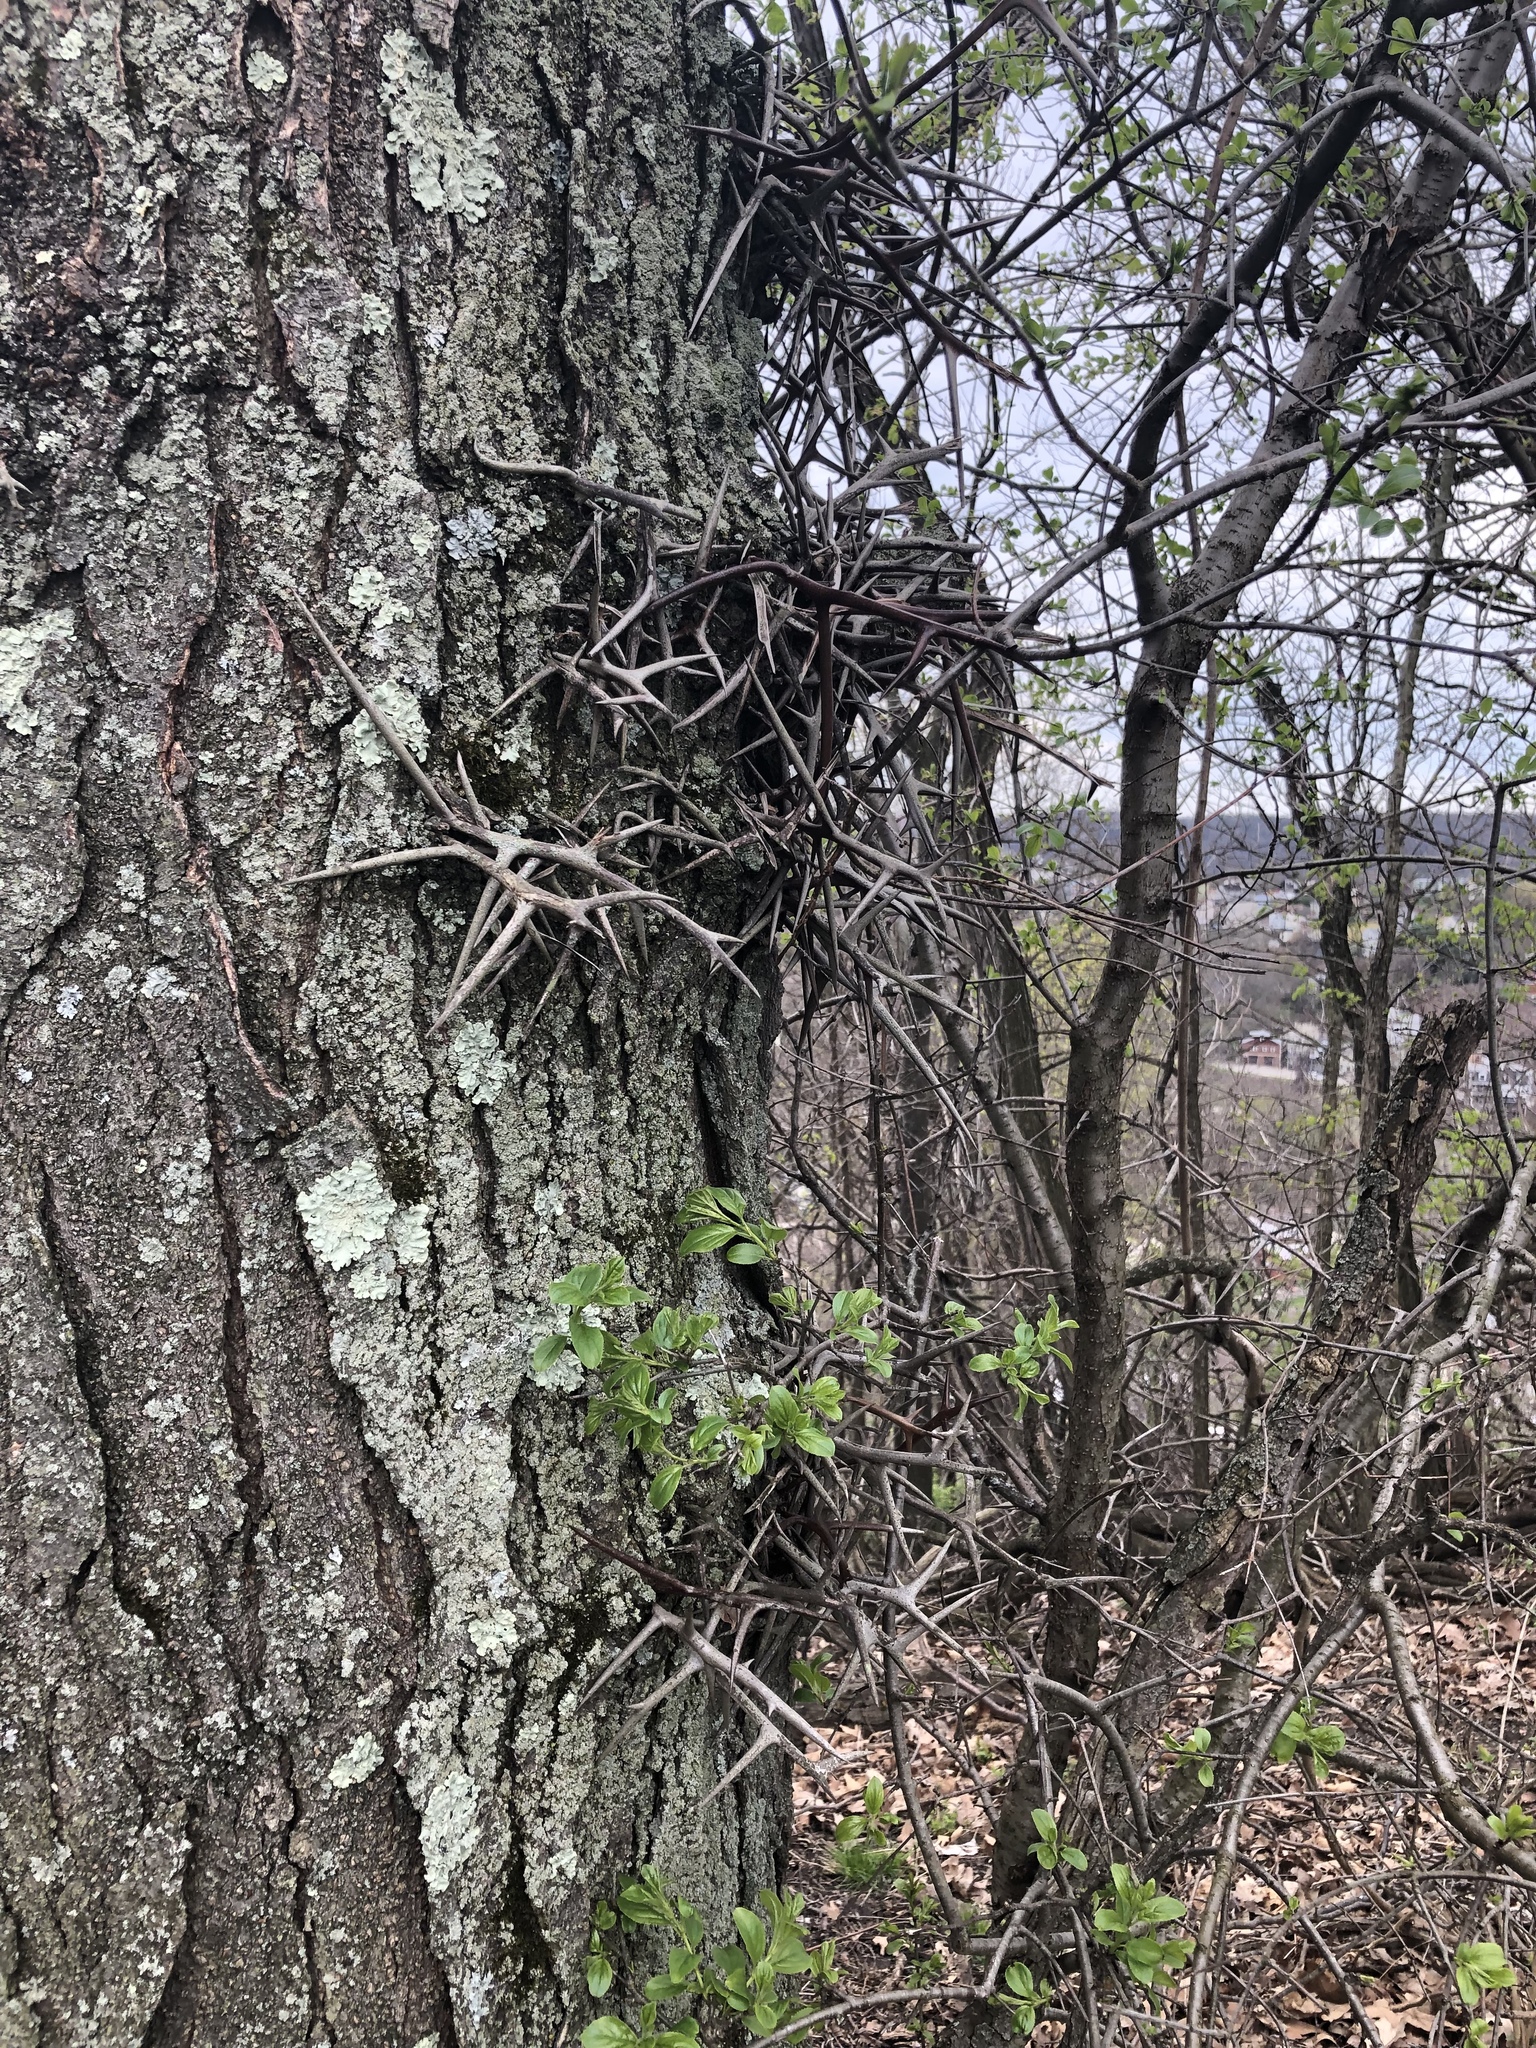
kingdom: Plantae
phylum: Tracheophyta
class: Magnoliopsida
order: Fabales
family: Fabaceae
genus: Gleditsia
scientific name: Gleditsia triacanthos
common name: Common honeylocust
